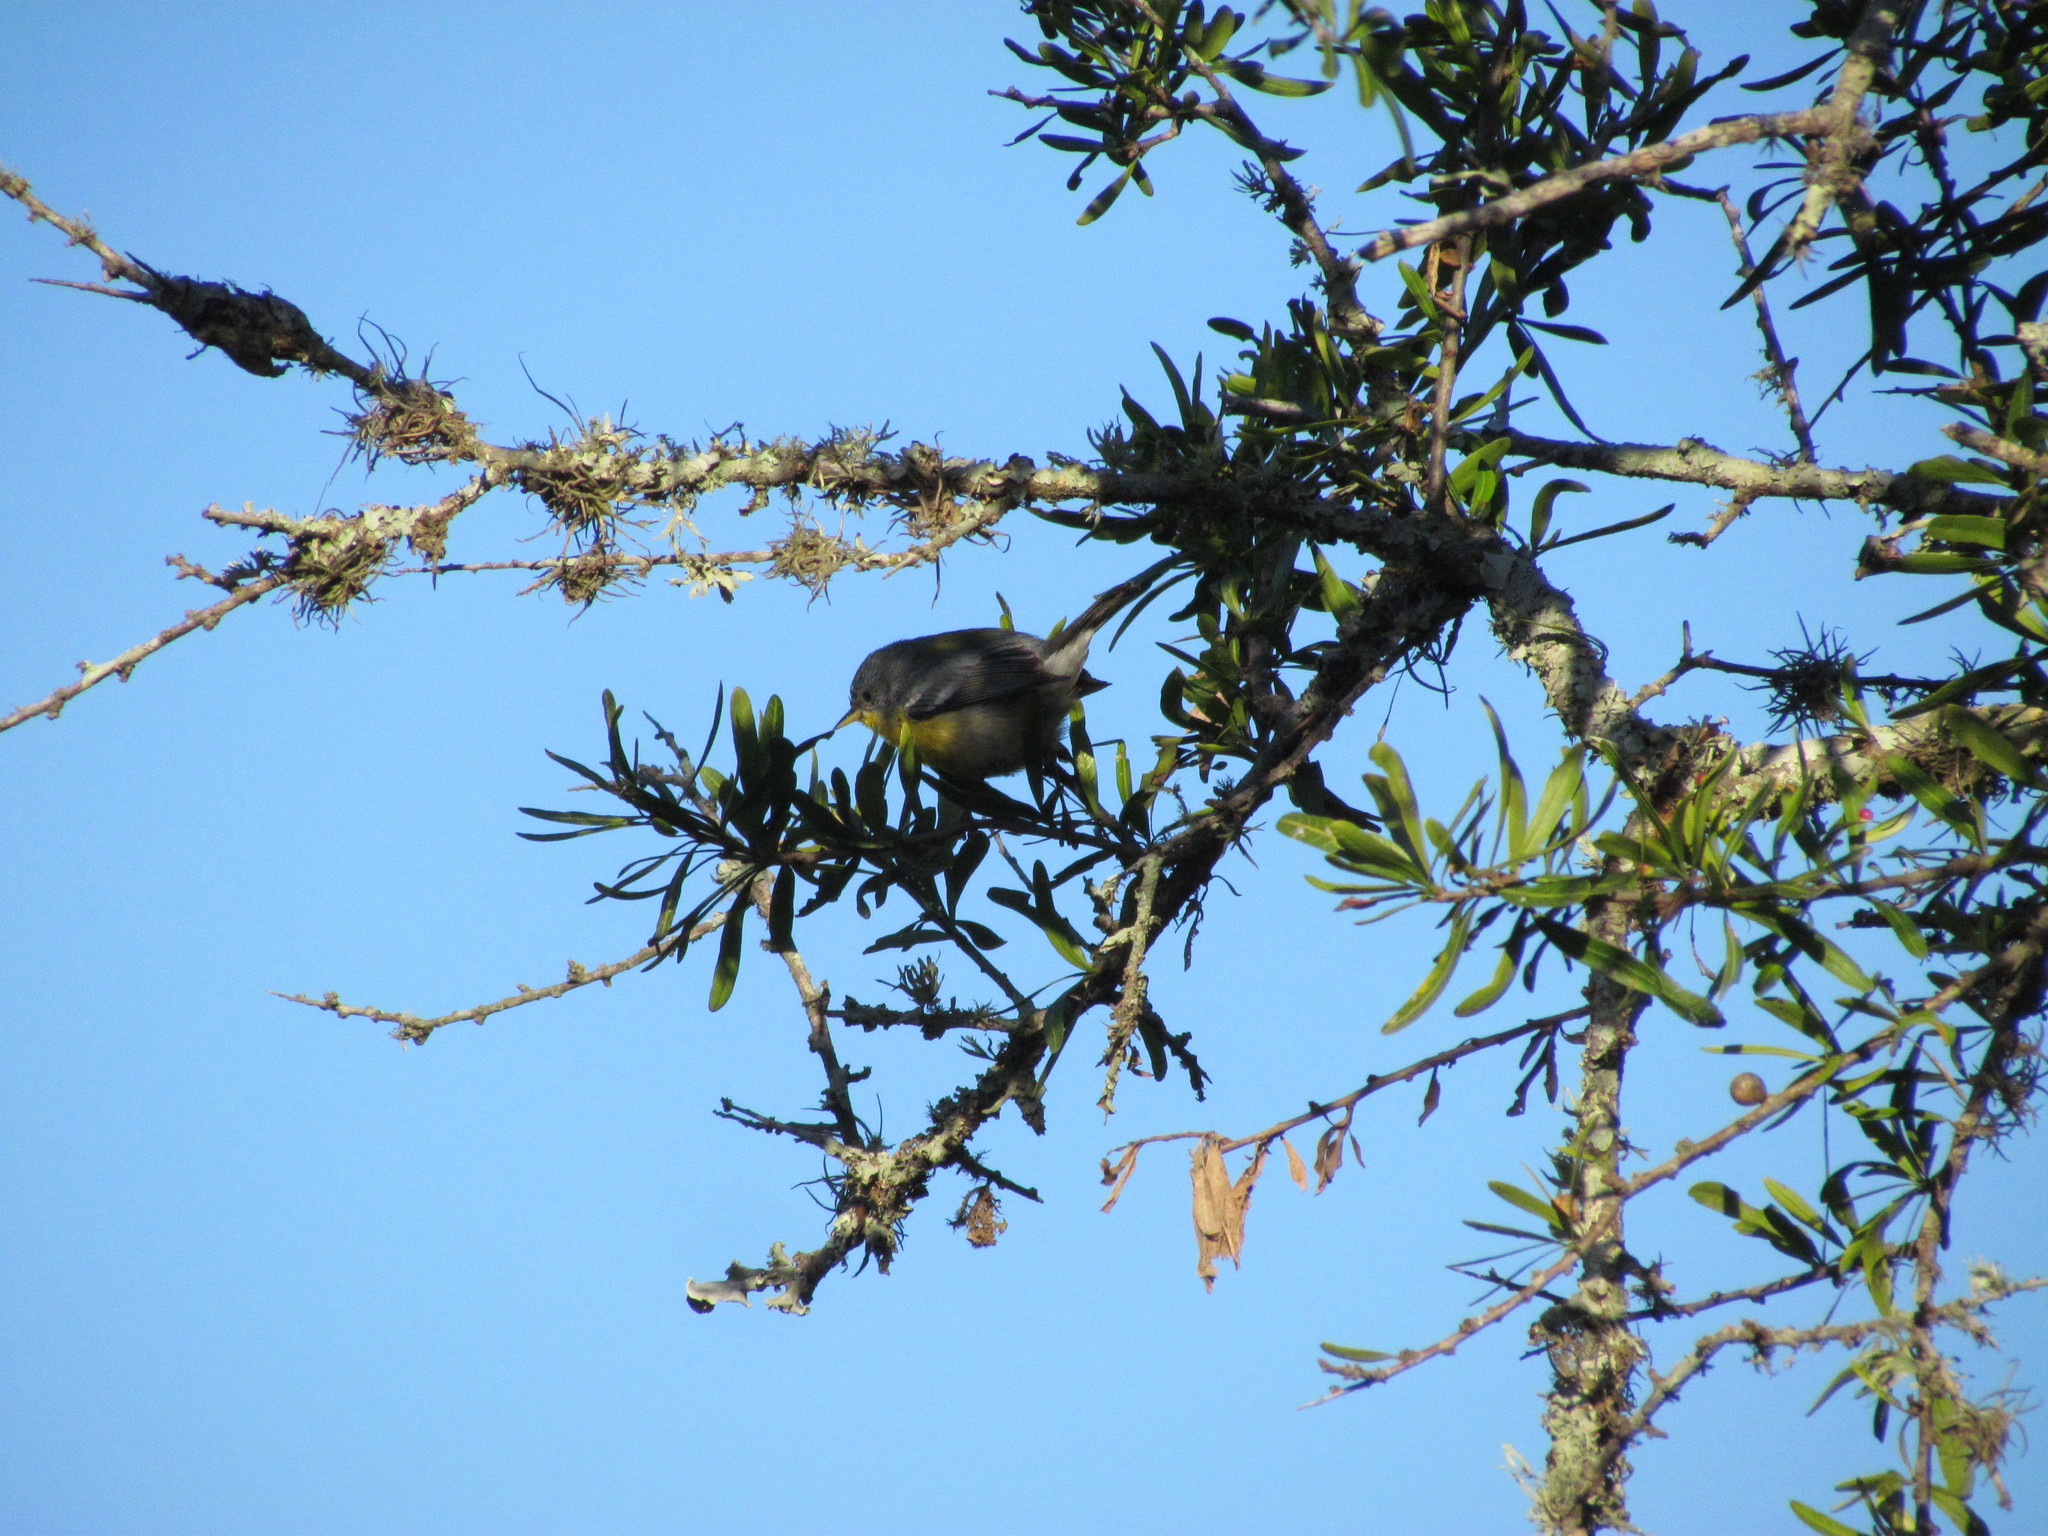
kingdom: Animalia
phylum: Chordata
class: Aves
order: Passeriformes
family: Parulidae
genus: Setophaga
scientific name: Setophaga pitiayumi
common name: Tropical parula
